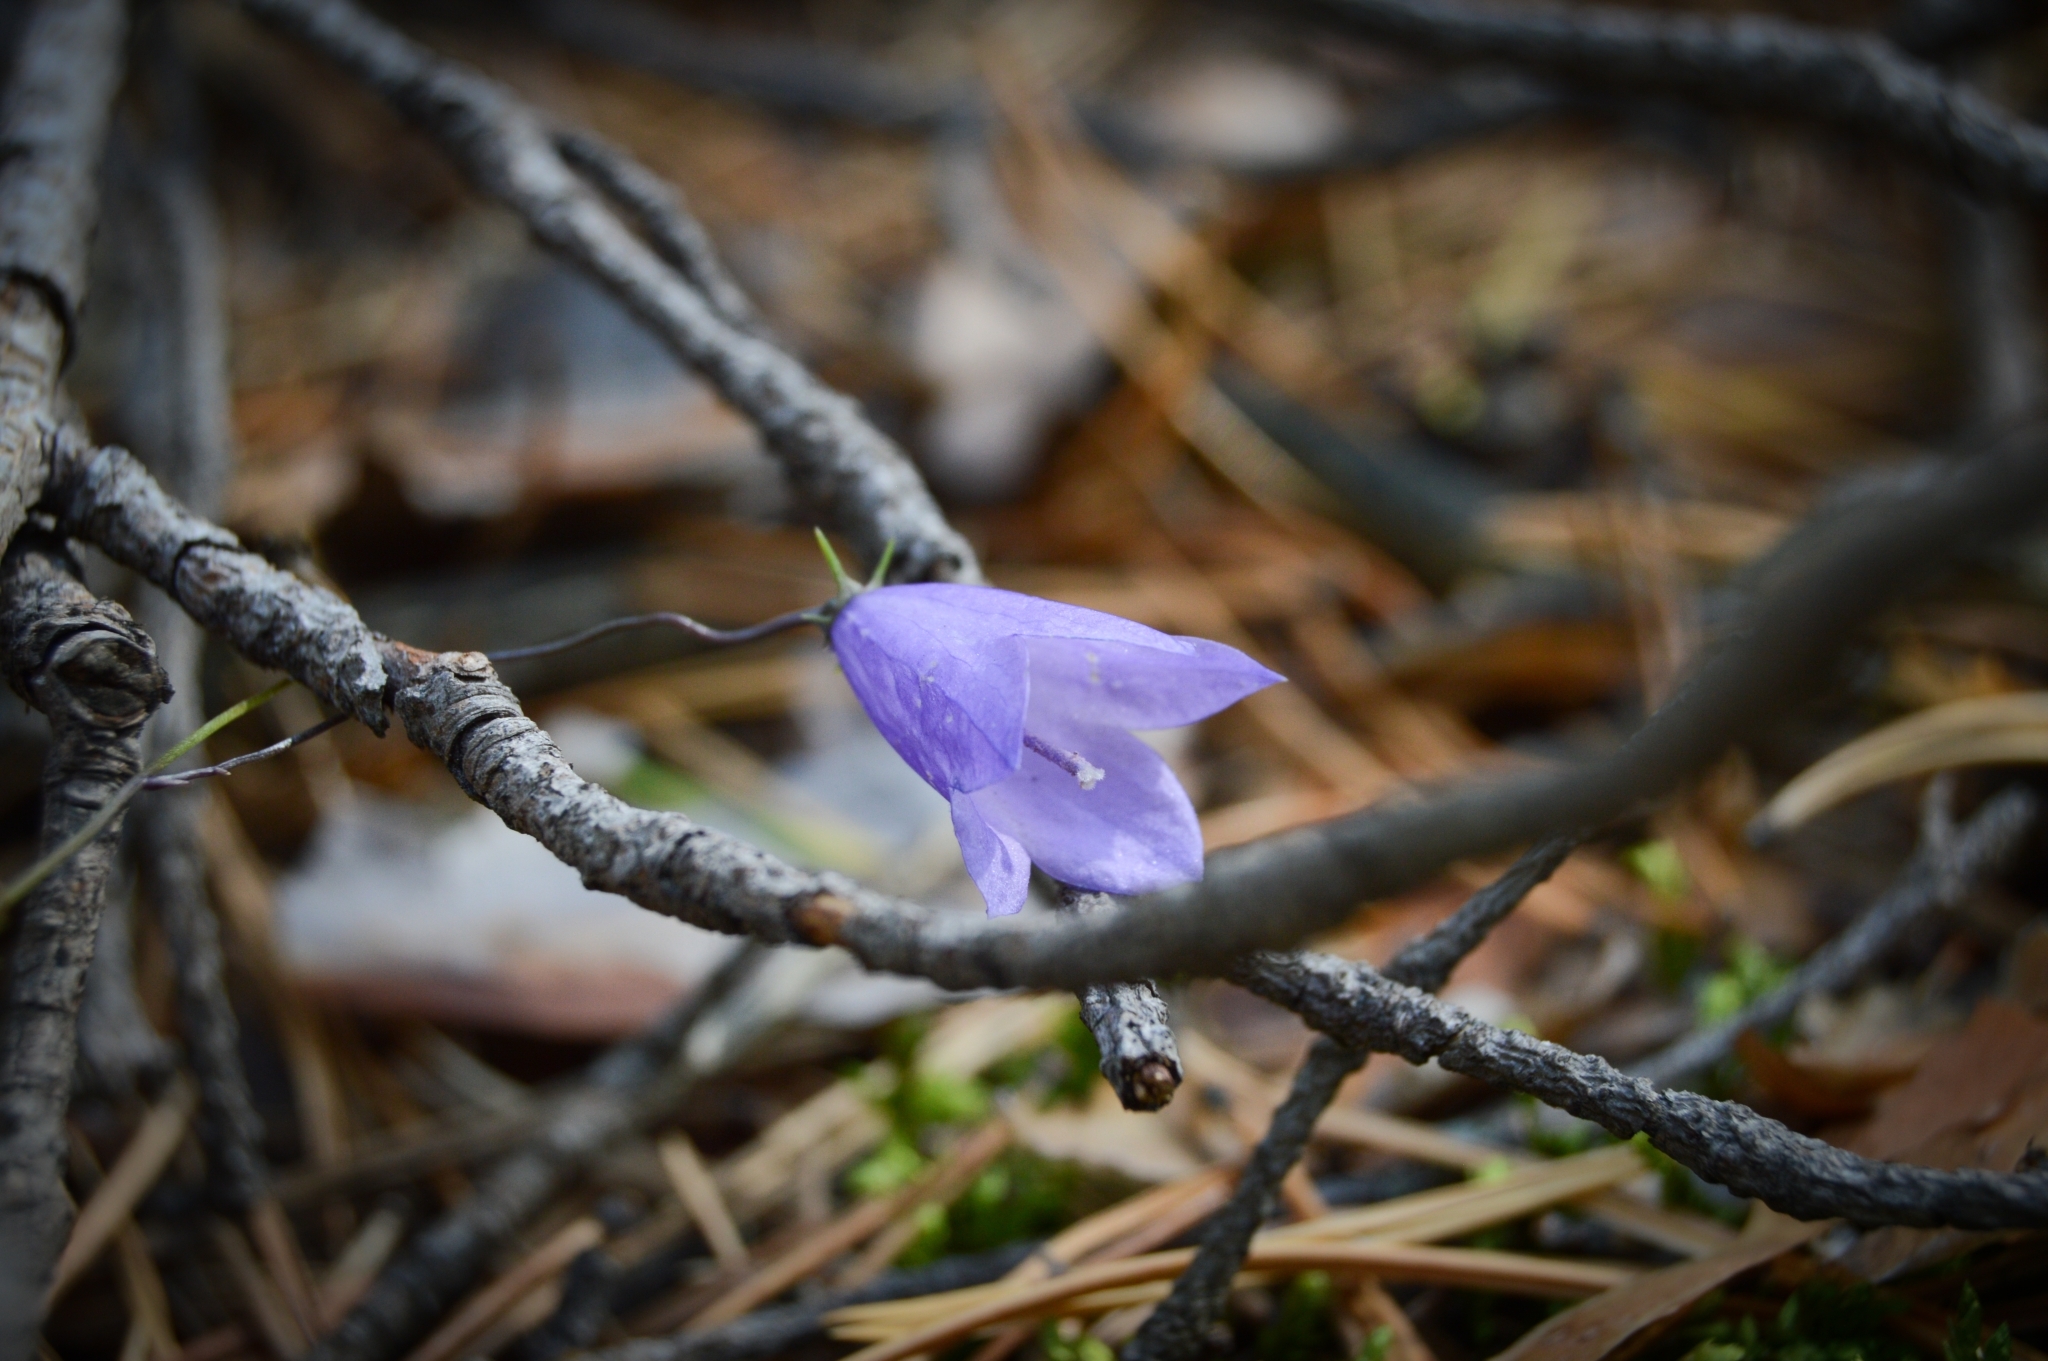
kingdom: Plantae
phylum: Tracheophyta
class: Magnoliopsida
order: Asterales
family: Campanulaceae
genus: Campanula
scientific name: Campanula rotundifolia
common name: Harebell
